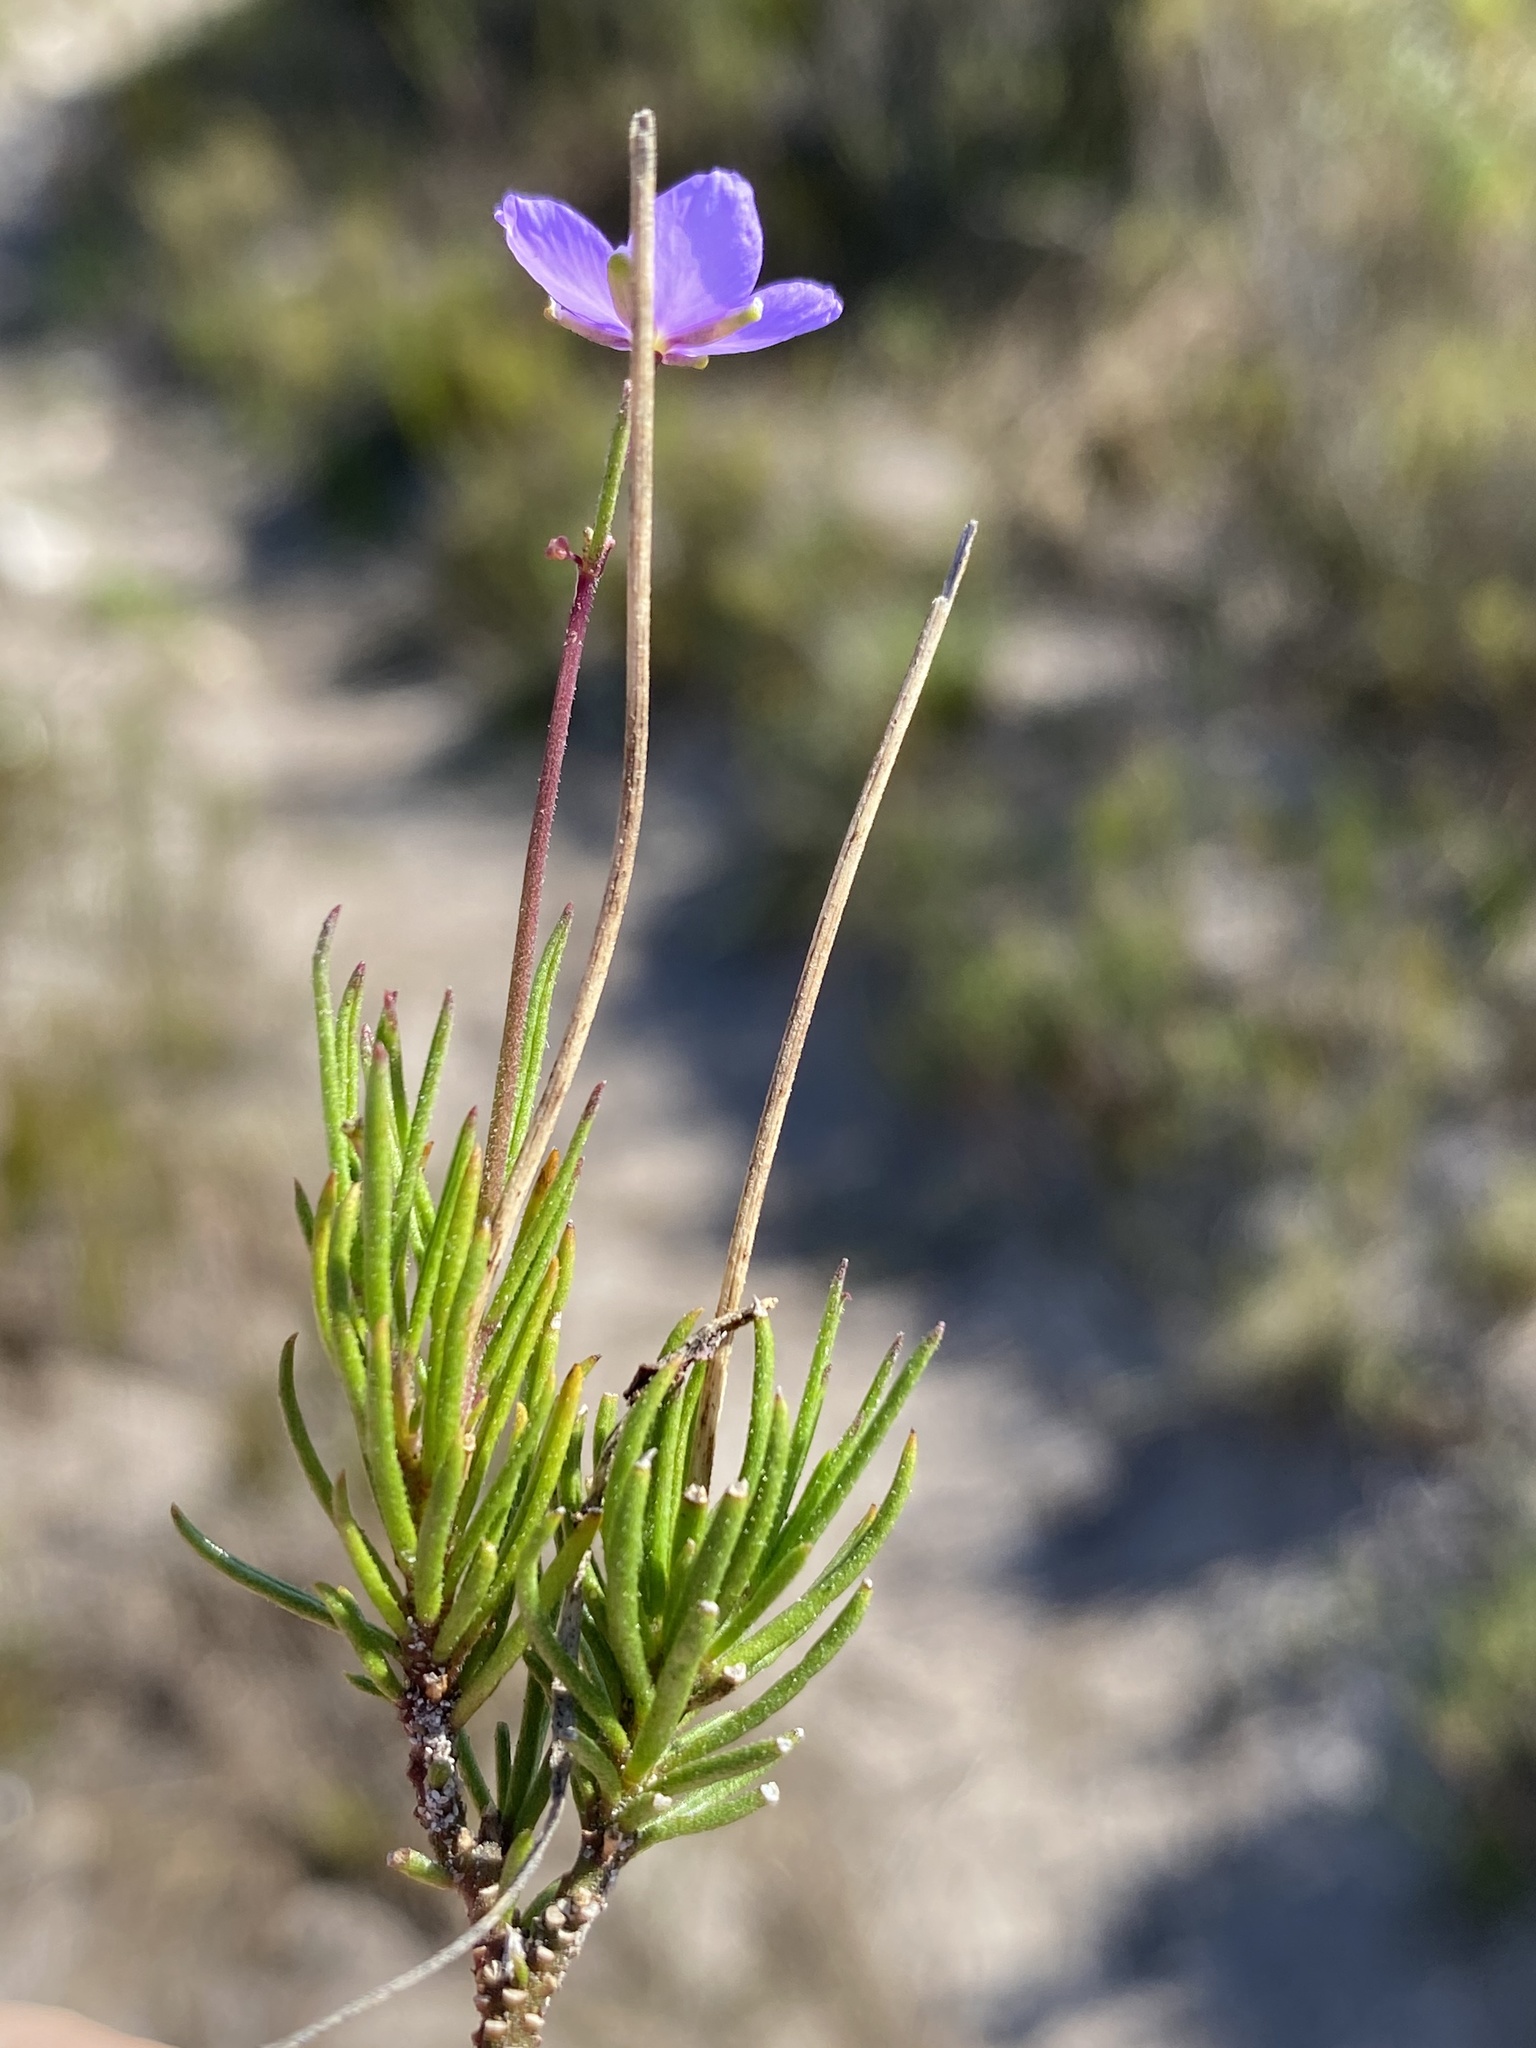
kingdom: Plantae
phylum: Tracheophyta
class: Magnoliopsida
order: Brassicales
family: Brassicaceae
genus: Heliophila
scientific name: Heliophila subulata
